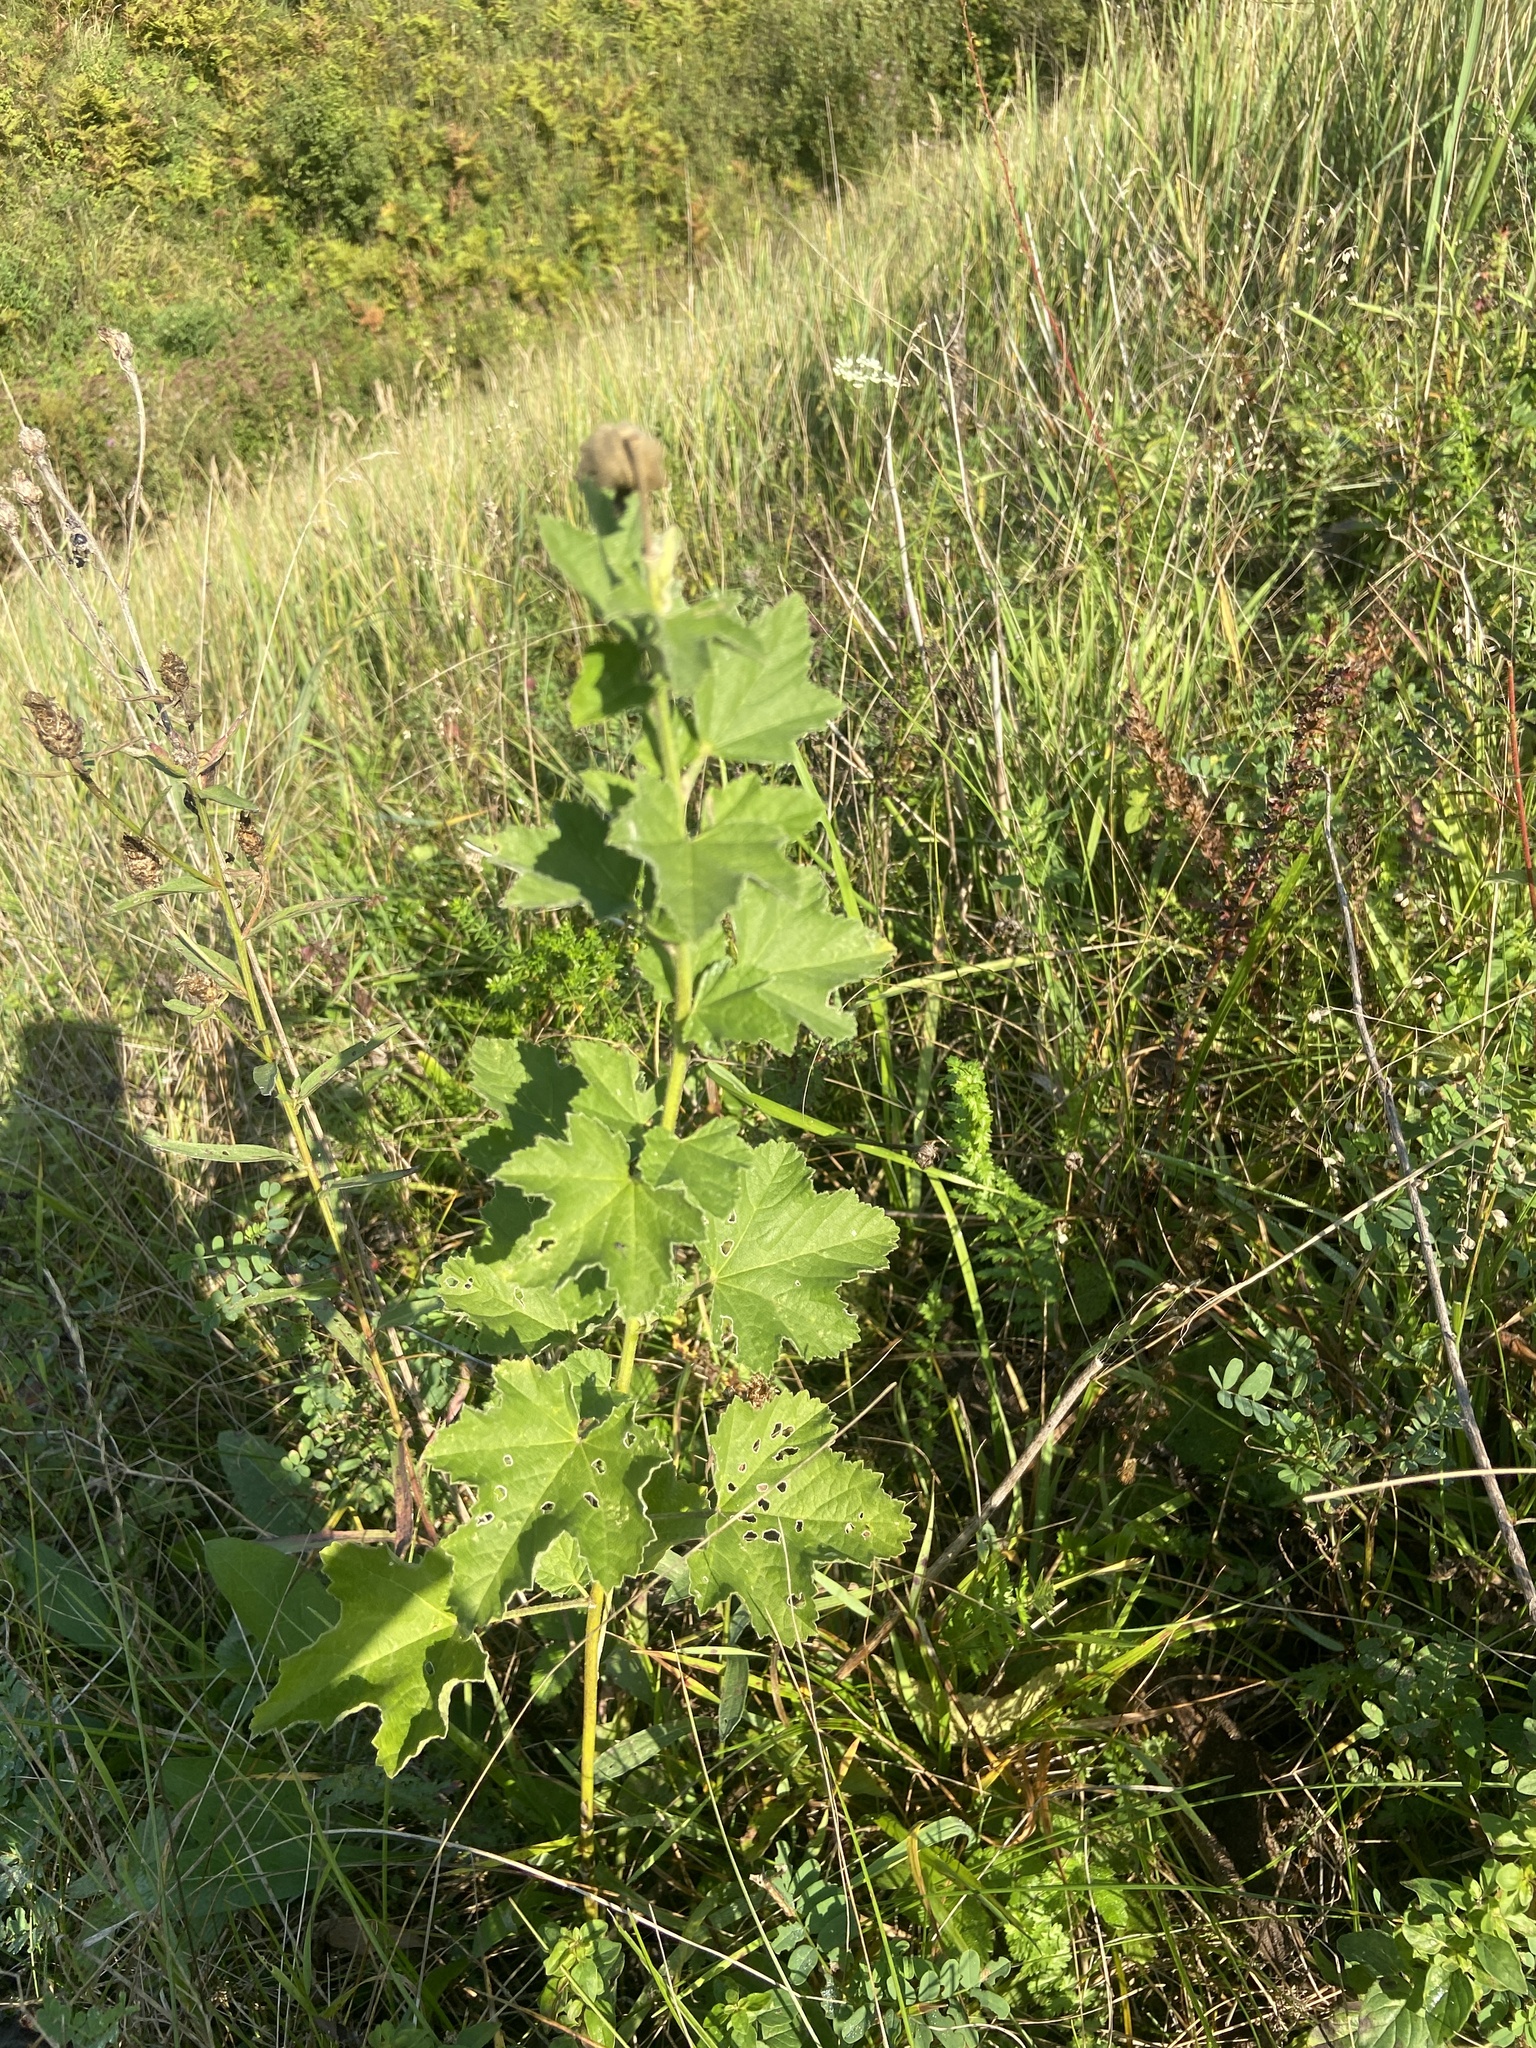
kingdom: Plantae
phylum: Tracheophyta
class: Magnoliopsida
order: Malvales
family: Malvaceae
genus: Malva
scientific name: Malva thuringiaca
